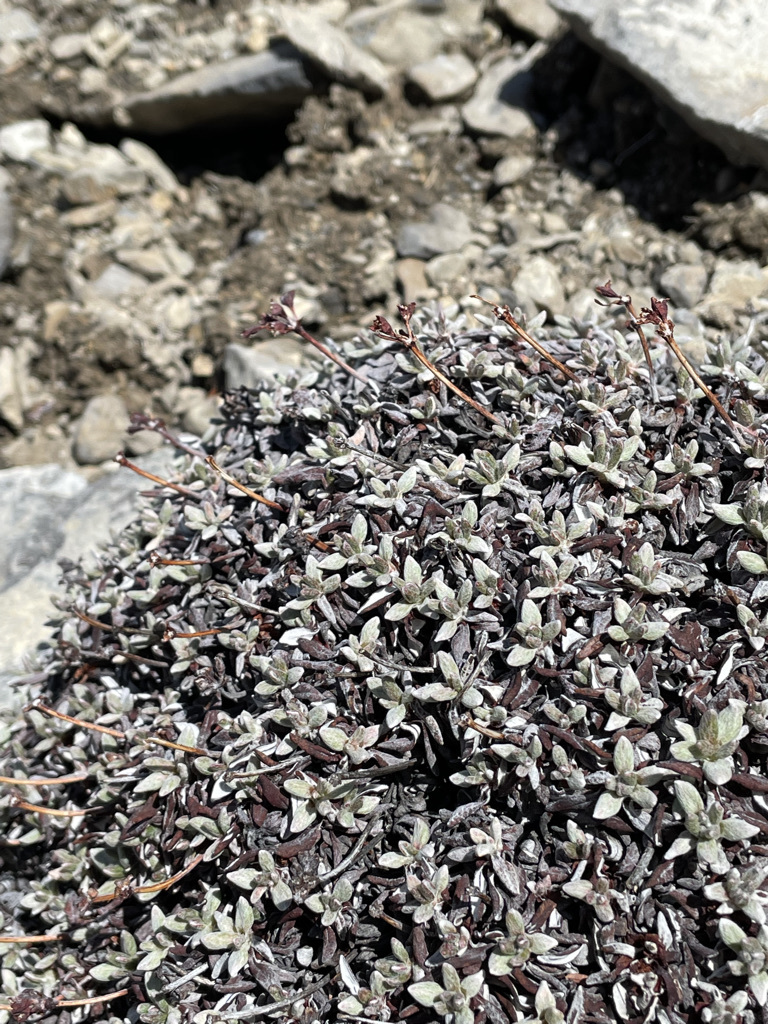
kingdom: Plantae
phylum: Tracheophyta
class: Magnoliopsida
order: Caryophyllales
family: Polygonaceae
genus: Eriogonum
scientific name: Eriogonum androsaceum
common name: Rock-jasmine wild buckwheat
